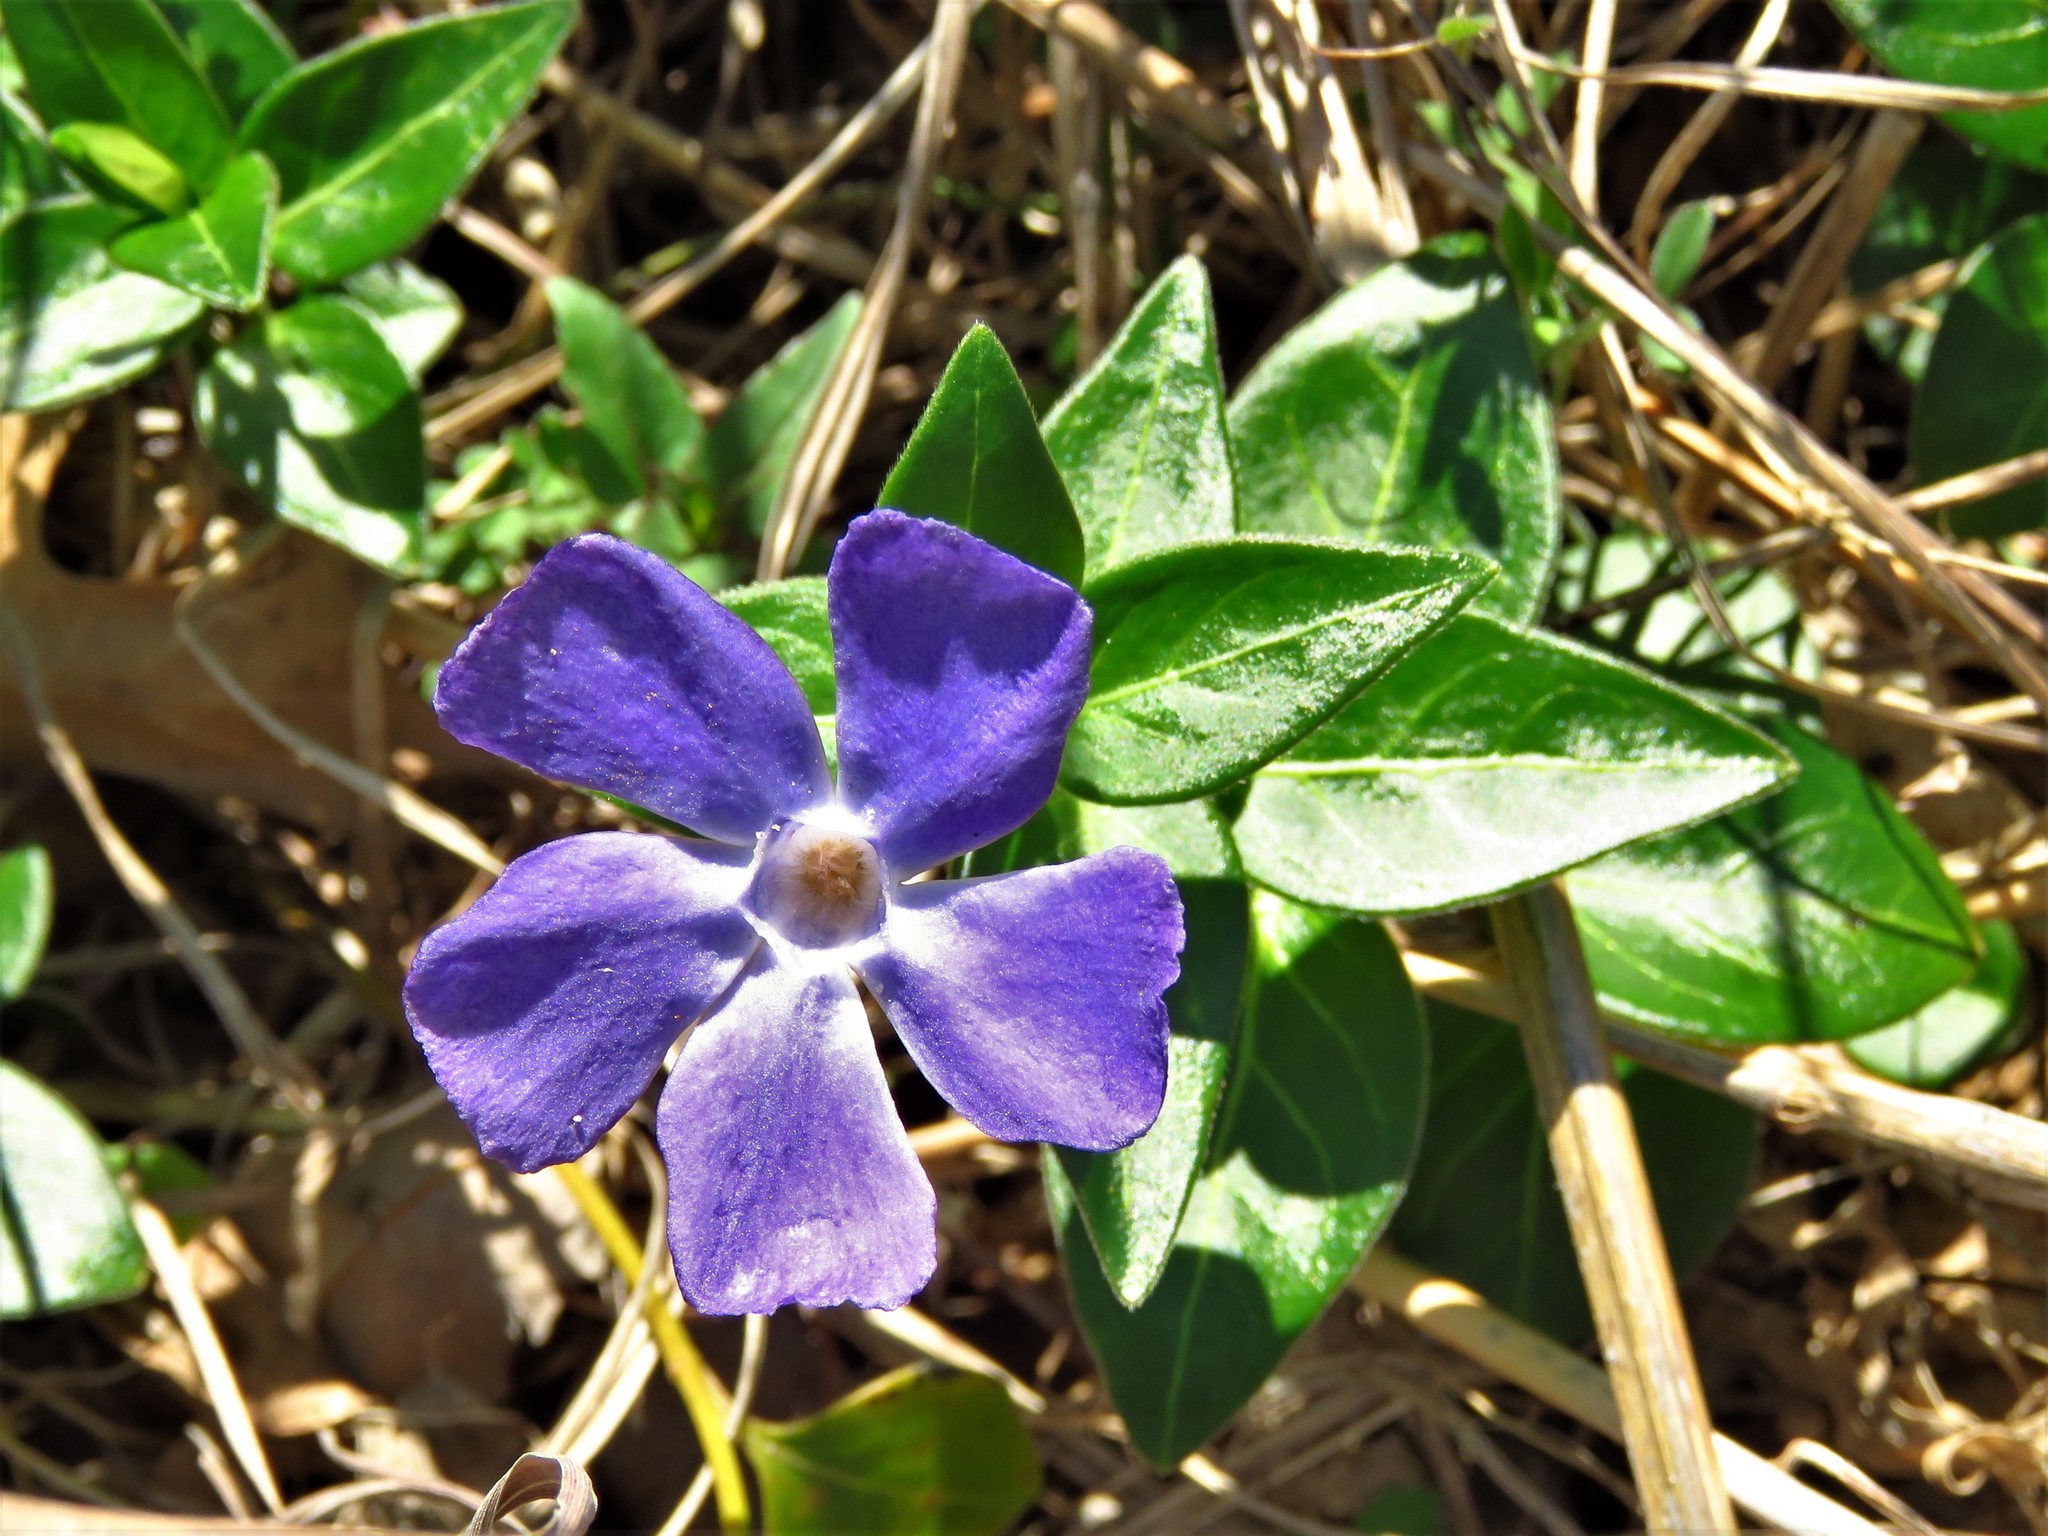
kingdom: Plantae
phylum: Tracheophyta
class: Magnoliopsida
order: Gentianales
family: Apocynaceae
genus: Vinca
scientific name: Vinca major
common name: Greater periwinkle
